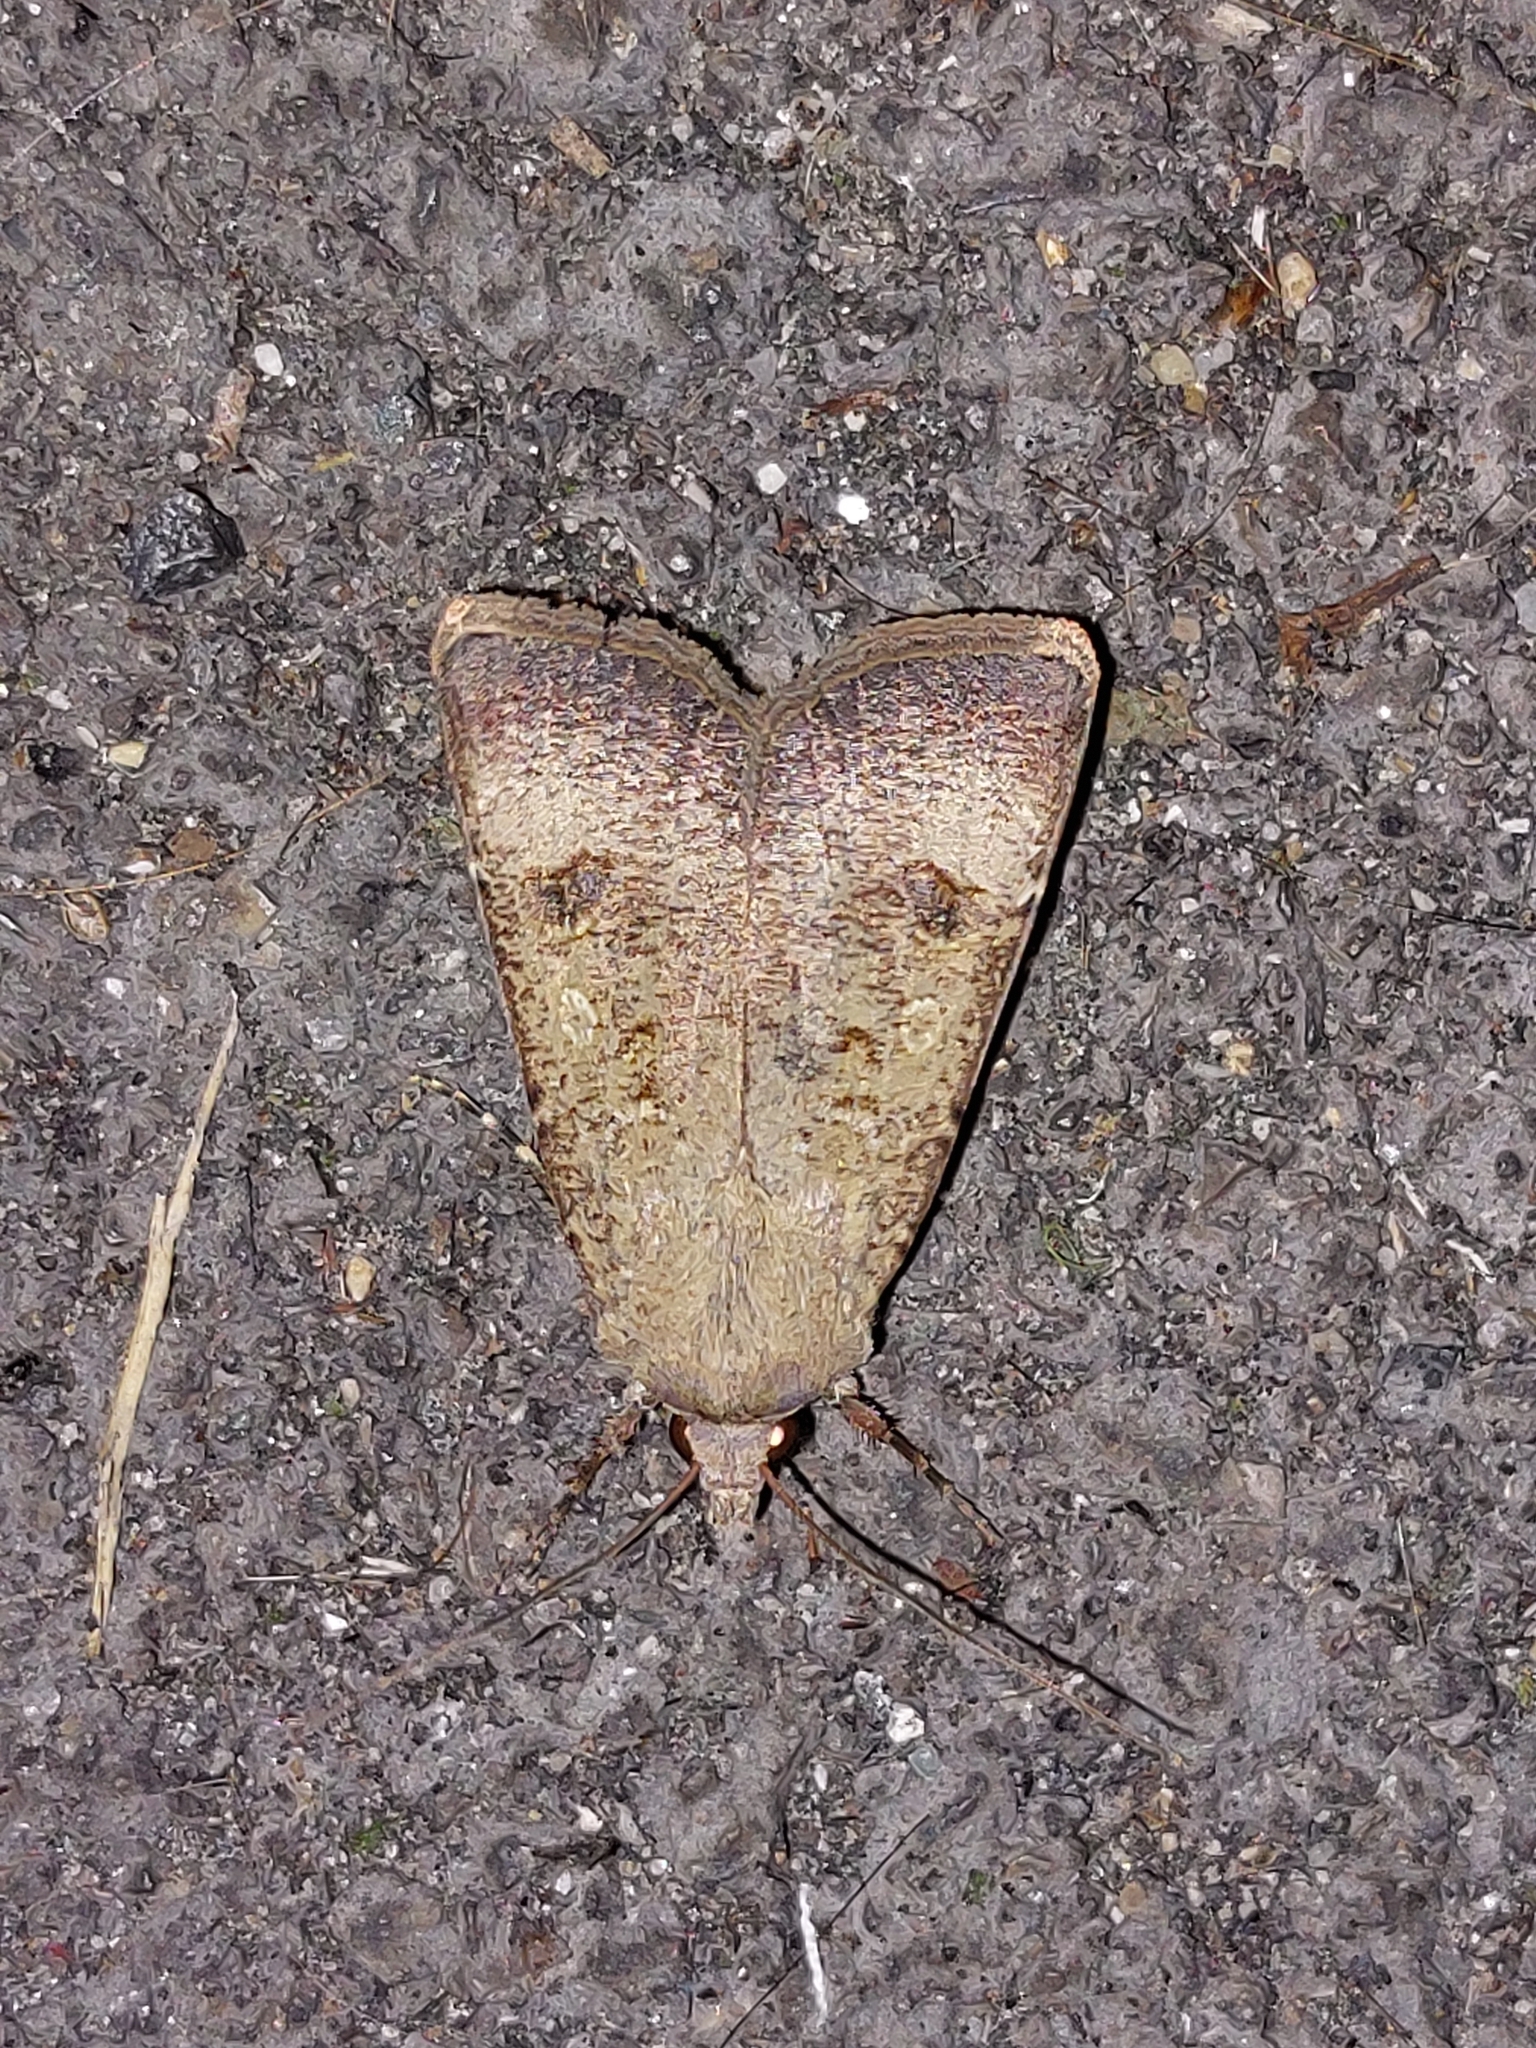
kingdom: Animalia
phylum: Arthropoda
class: Insecta
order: Lepidoptera
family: Noctuidae
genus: Agrotis
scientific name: Agrotis trux
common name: Crescent dart
